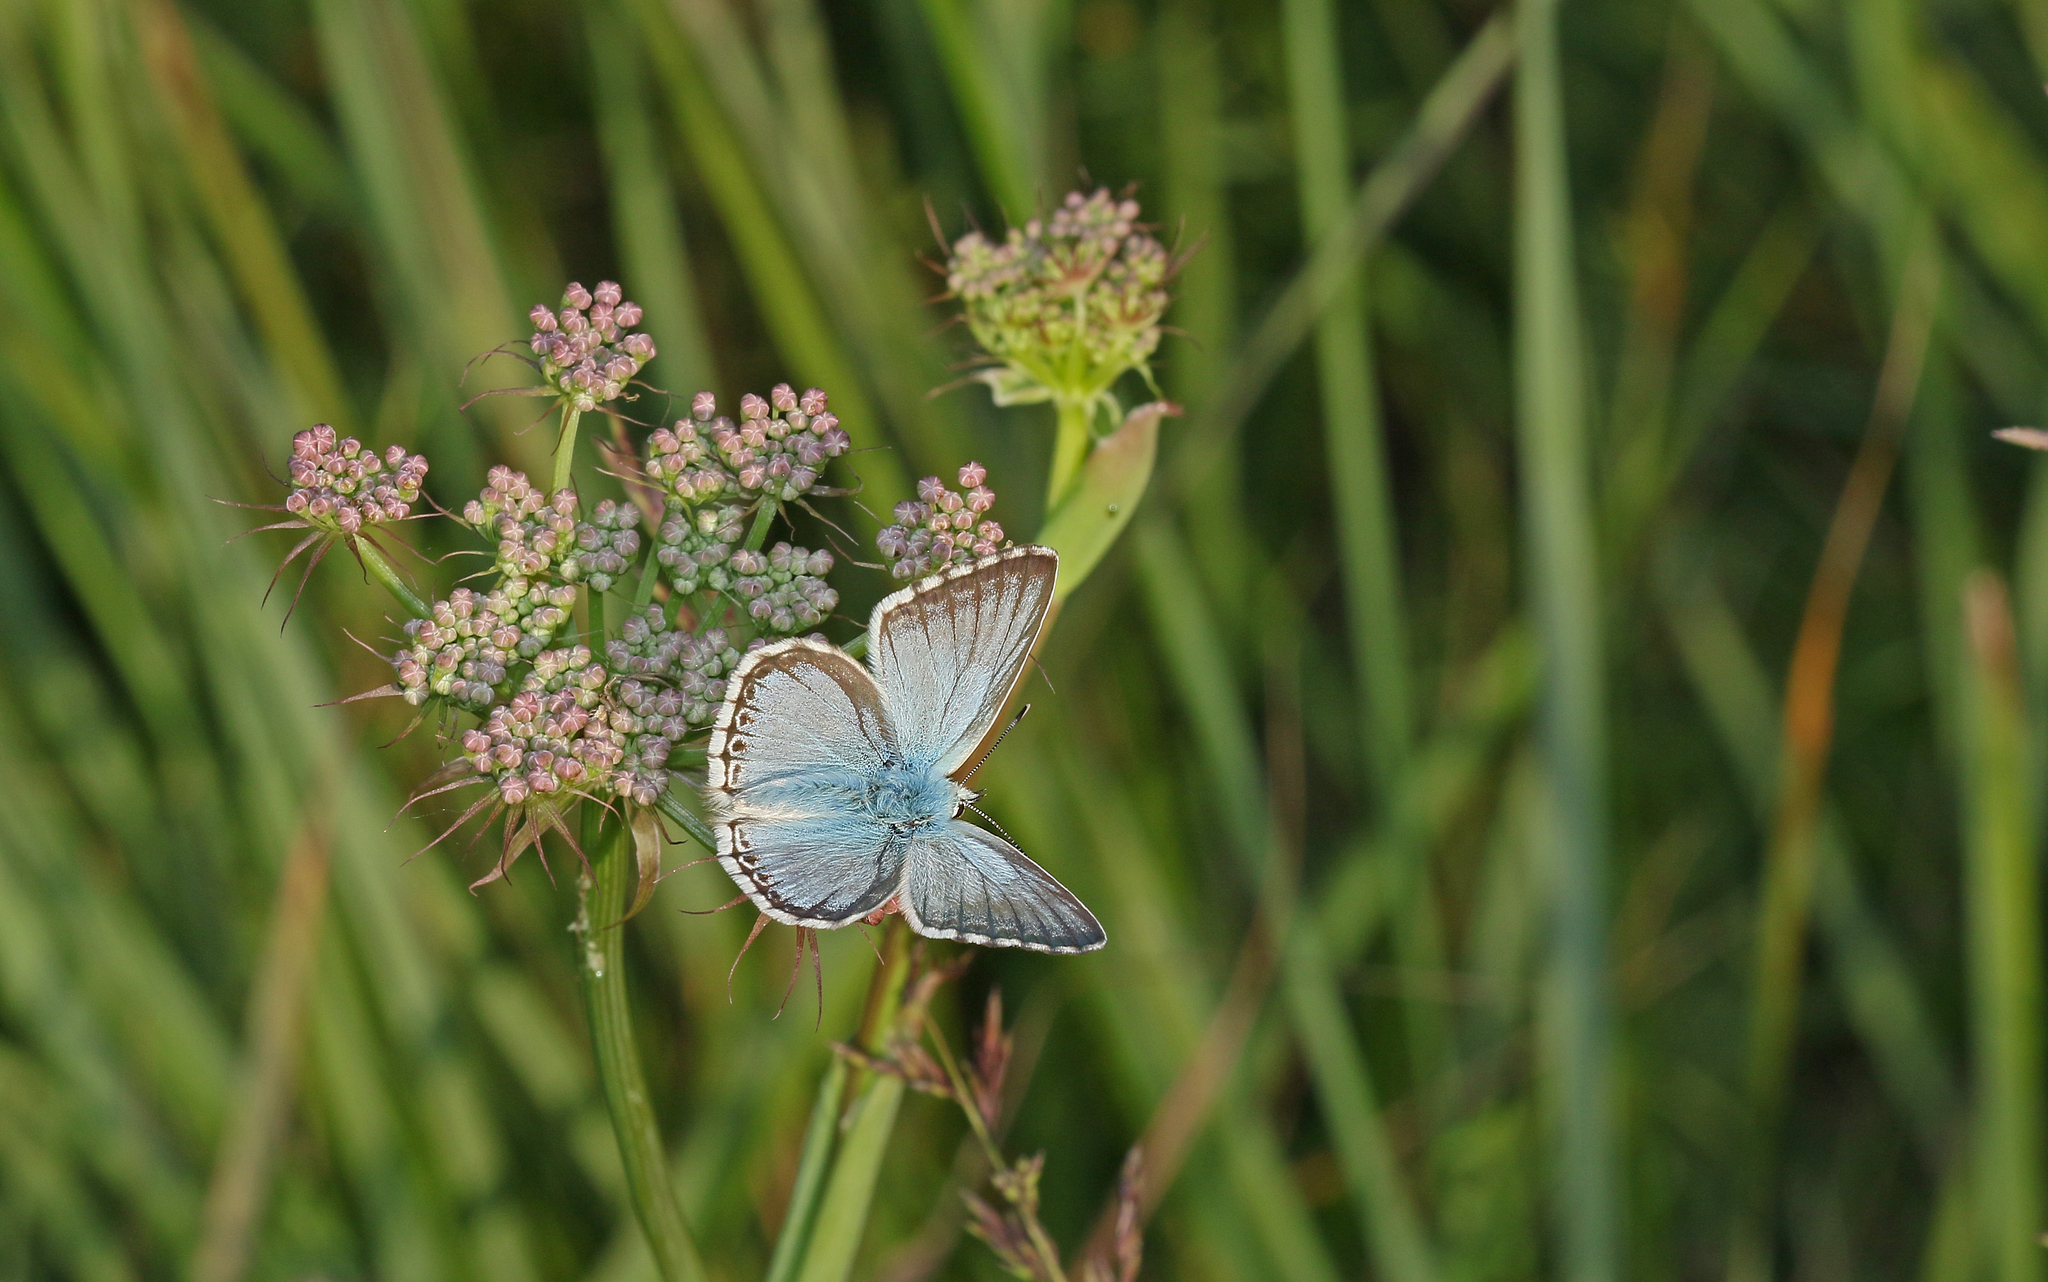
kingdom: Animalia
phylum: Arthropoda
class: Insecta
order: Lepidoptera
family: Lycaenidae
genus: Lysandra
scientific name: Lysandra coridon
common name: Chalkhill blue
